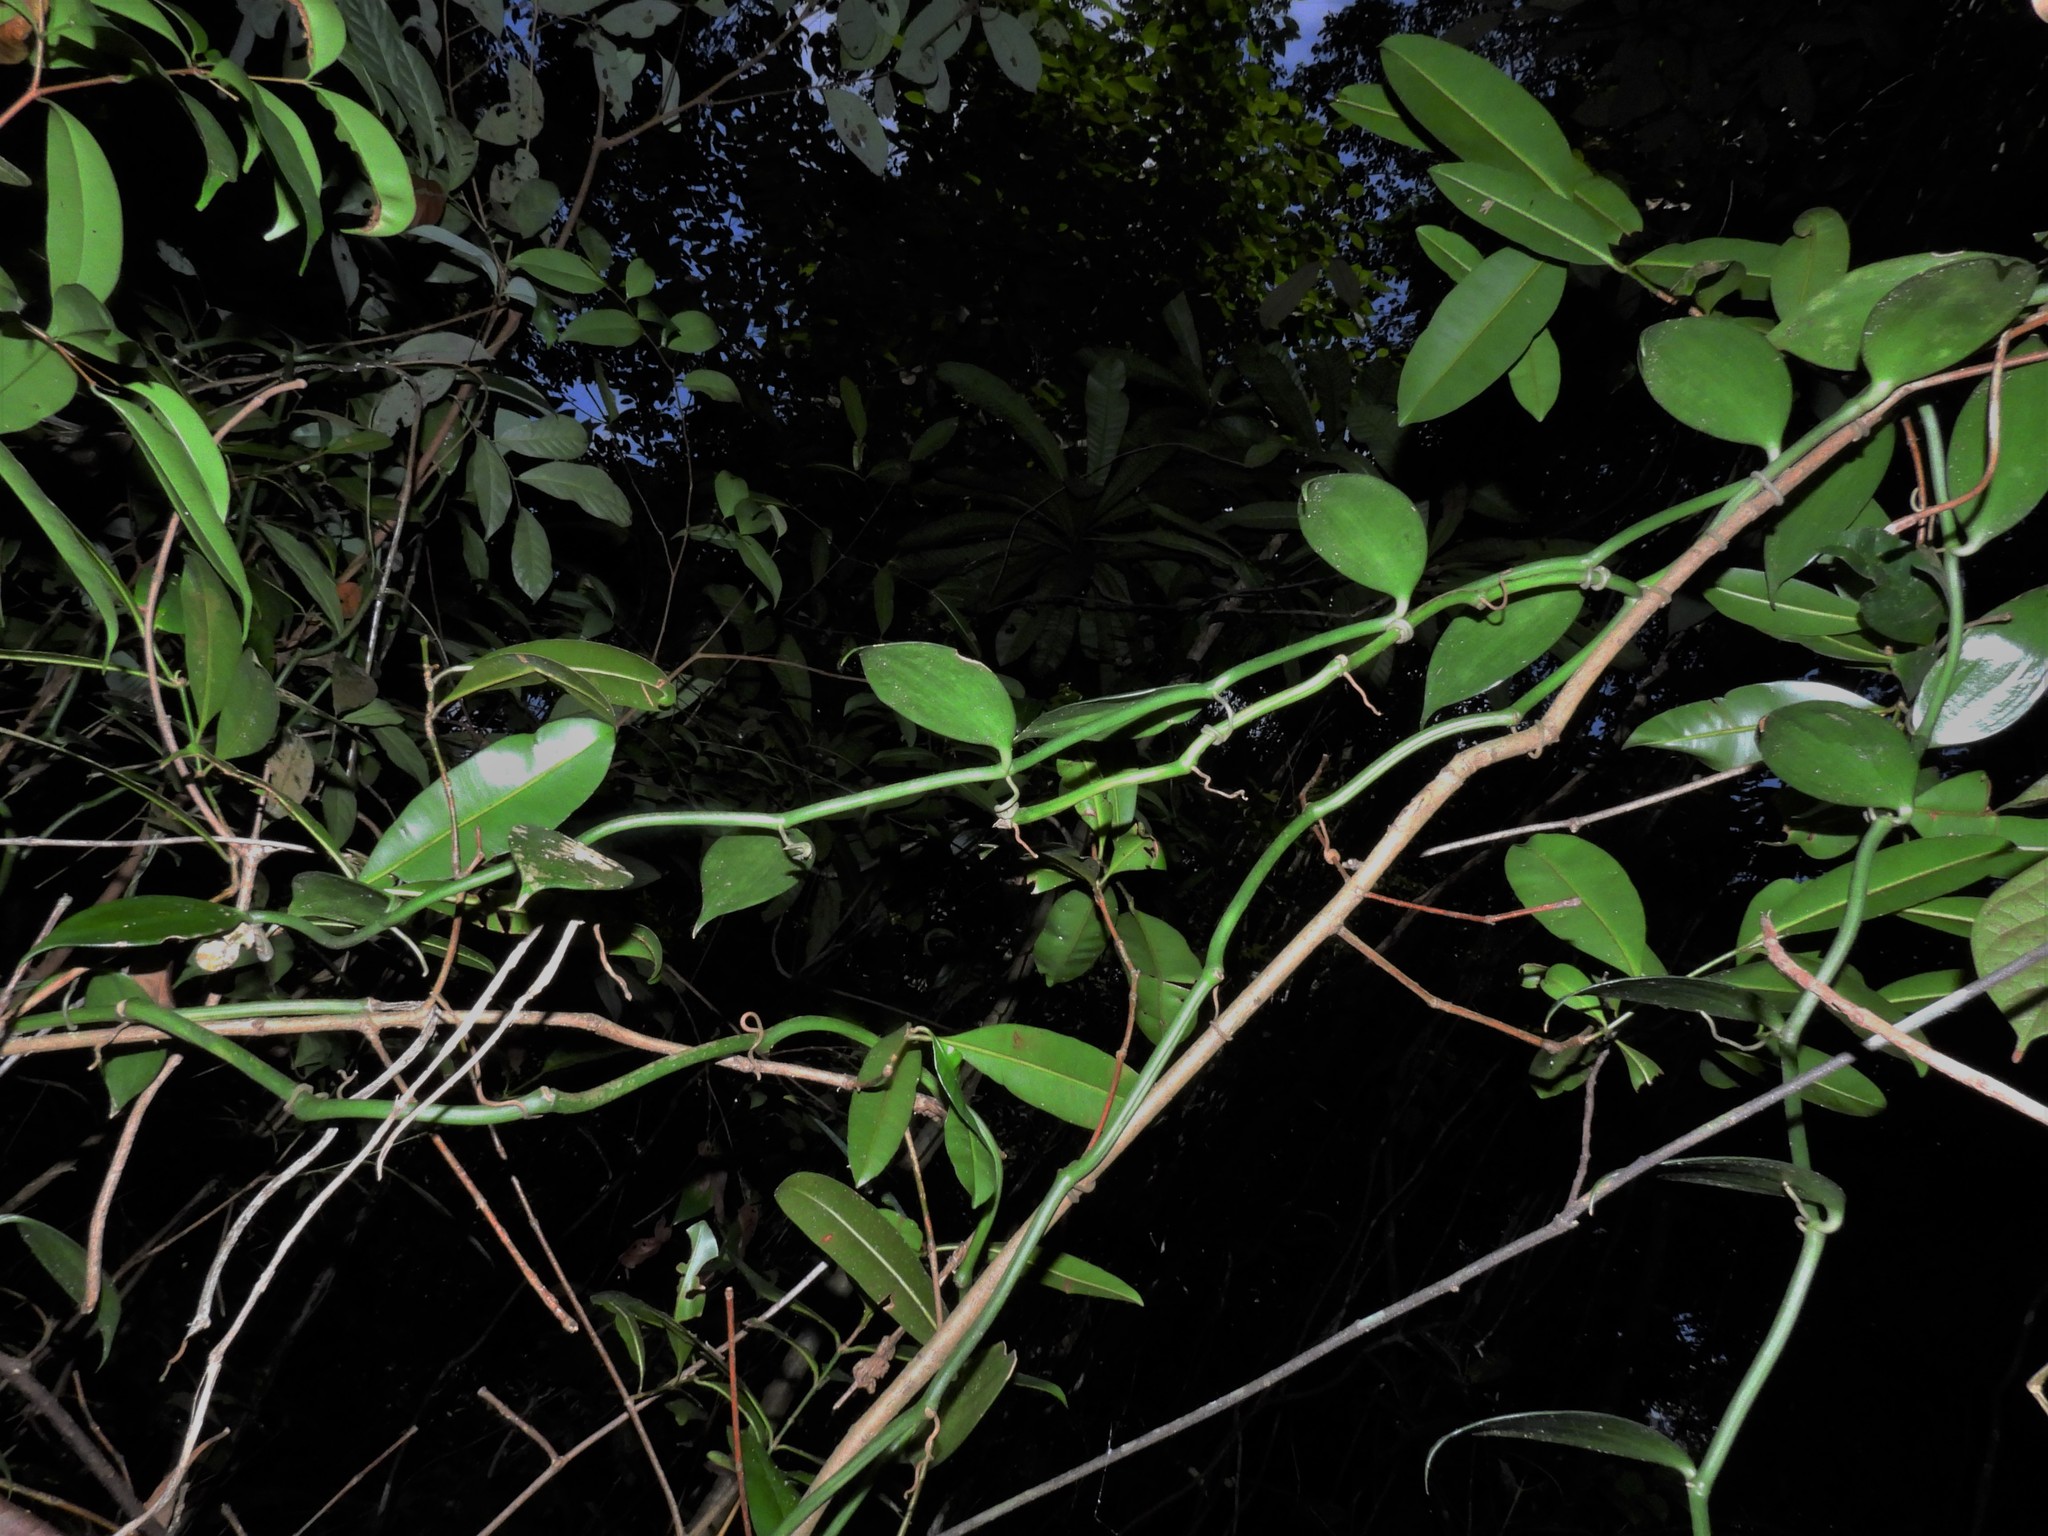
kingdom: Plantae
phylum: Tracheophyta
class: Liliopsida
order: Asparagales
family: Orchidaceae
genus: Vanilla
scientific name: Vanilla griffithii
